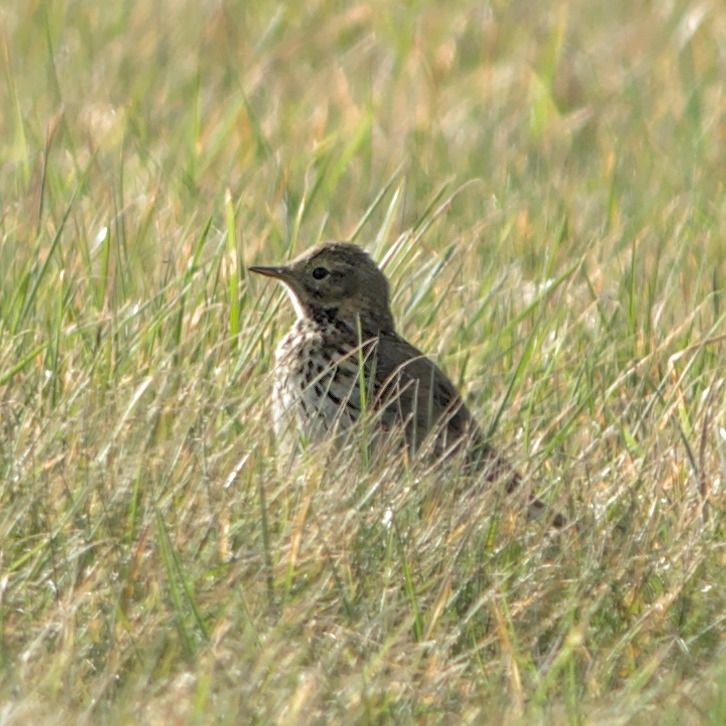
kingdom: Animalia
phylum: Chordata
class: Aves
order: Passeriformes
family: Motacillidae
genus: Anthus
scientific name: Anthus pratensis
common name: Meadow pipit
